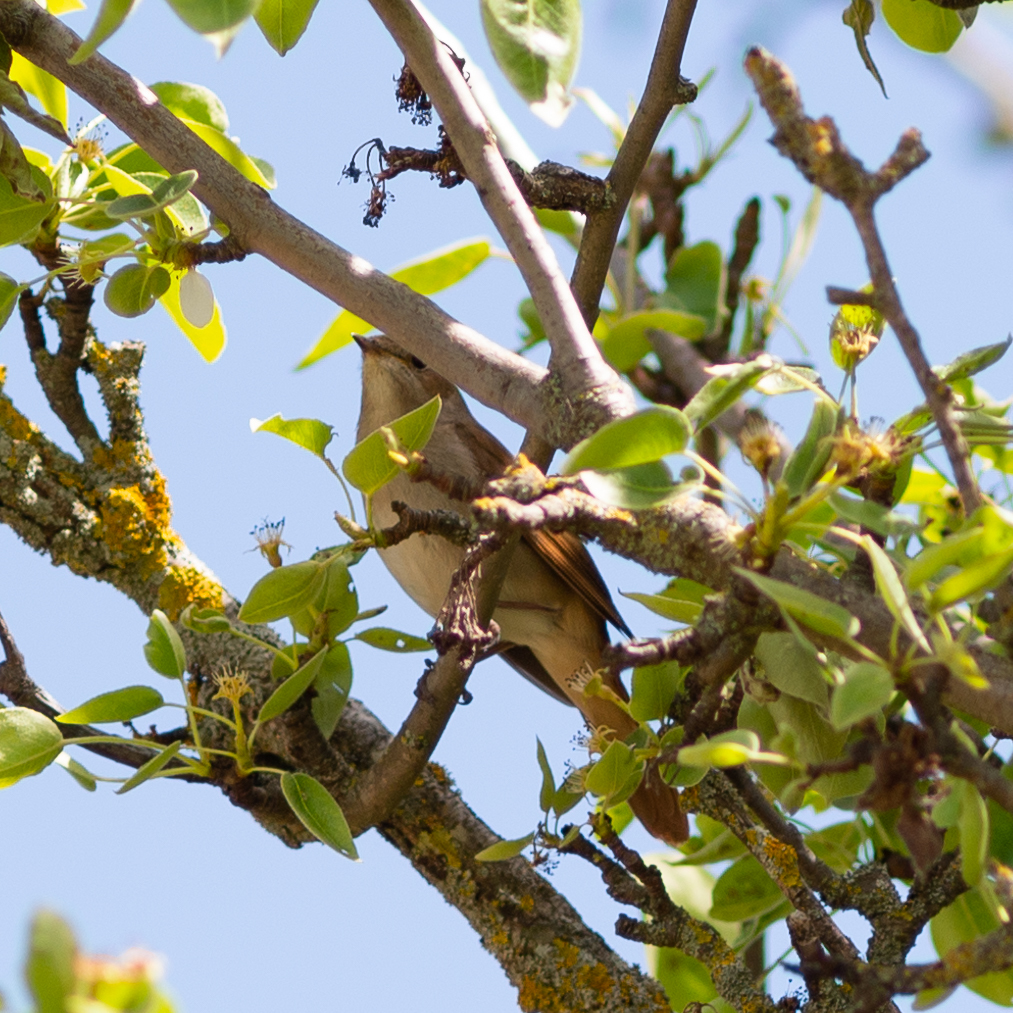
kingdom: Animalia
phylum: Chordata
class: Aves
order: Passeriformes
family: Muscicapidae
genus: Luscinia
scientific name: Luscinia megarhynchos
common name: Common nightingale
